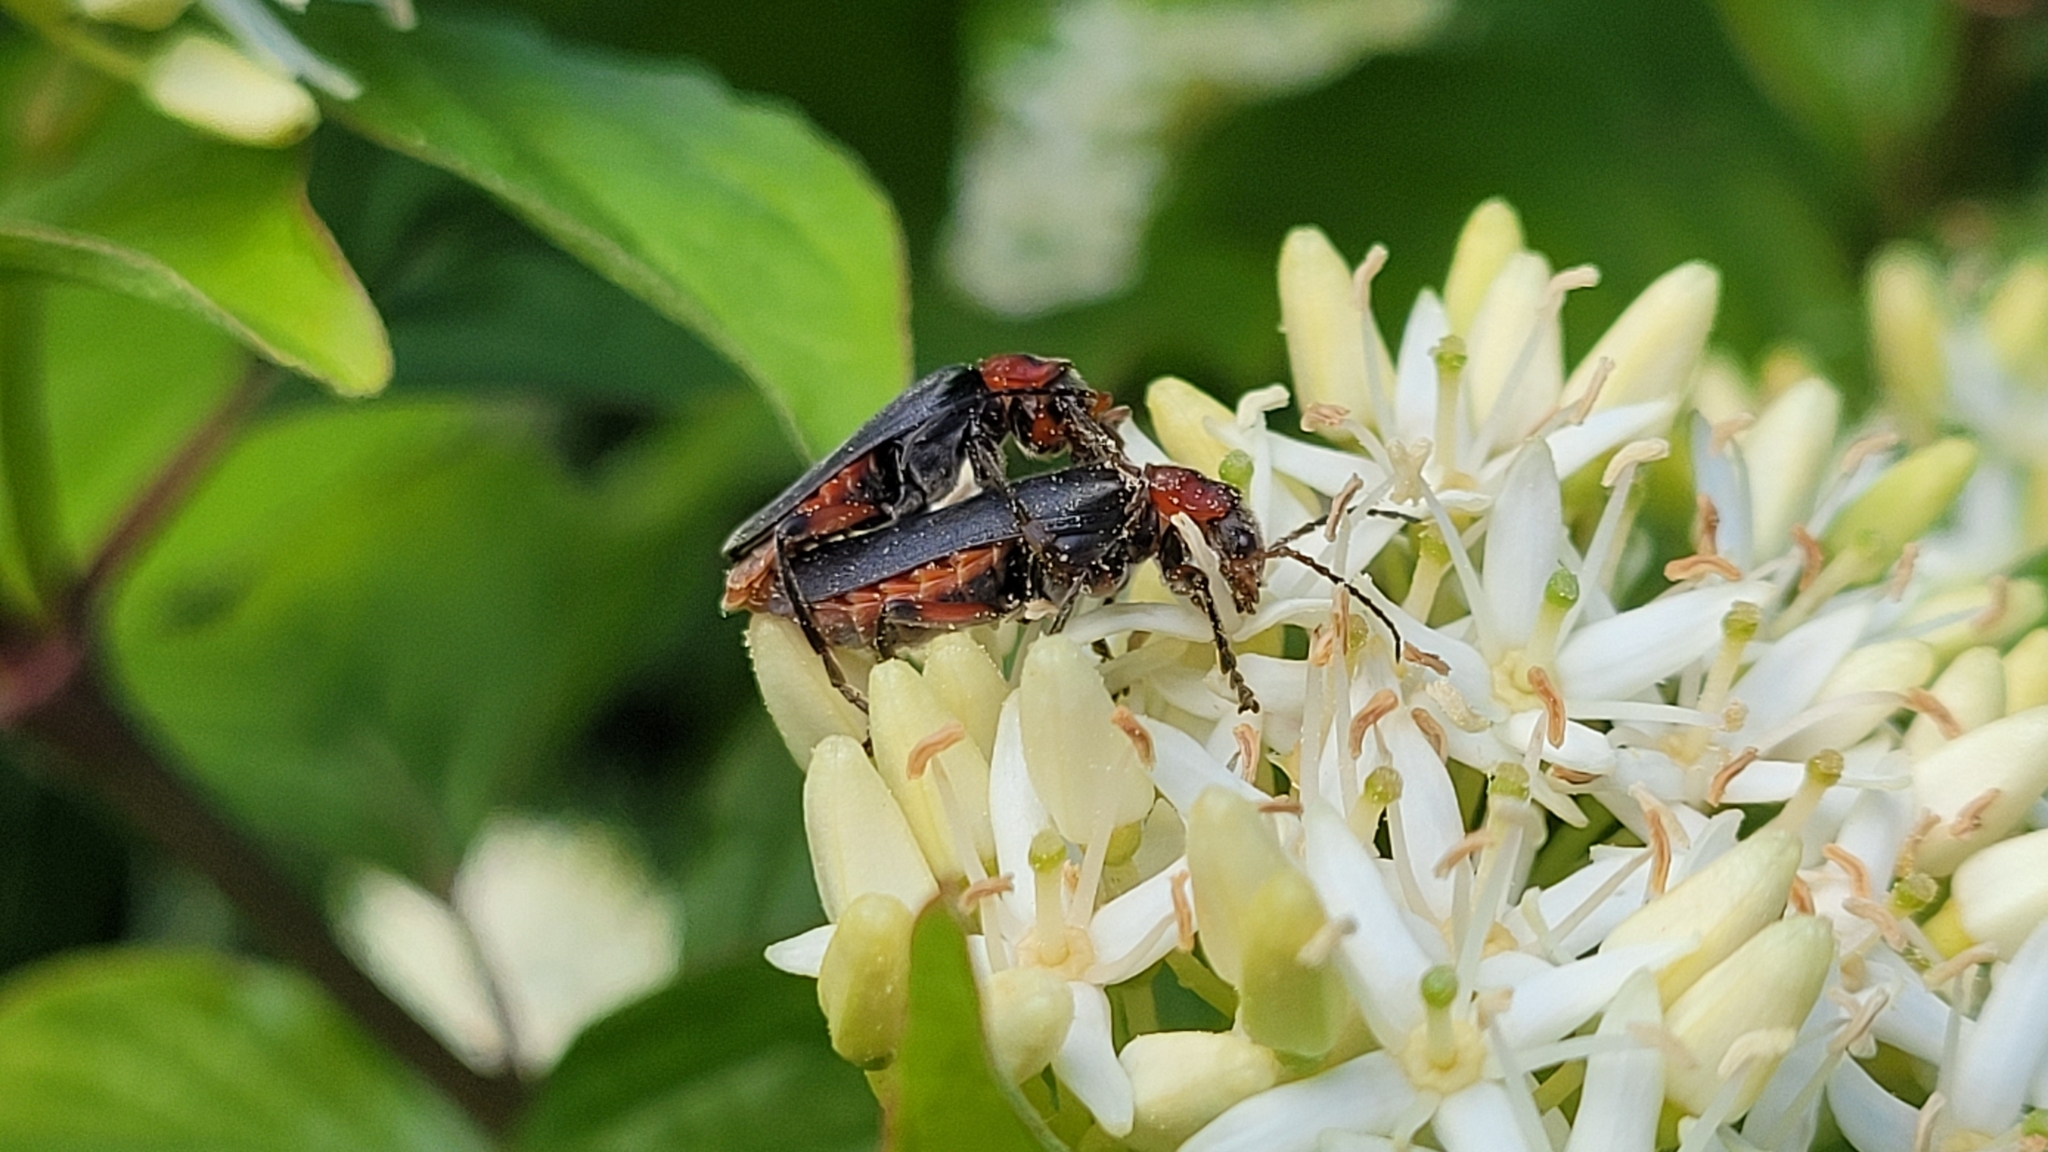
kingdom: Animalia
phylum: Arthropoda
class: Insecta
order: Coleoptera
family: Cantharidae
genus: Cantharis
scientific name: Cantharis rustica
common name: Soldier beetle
